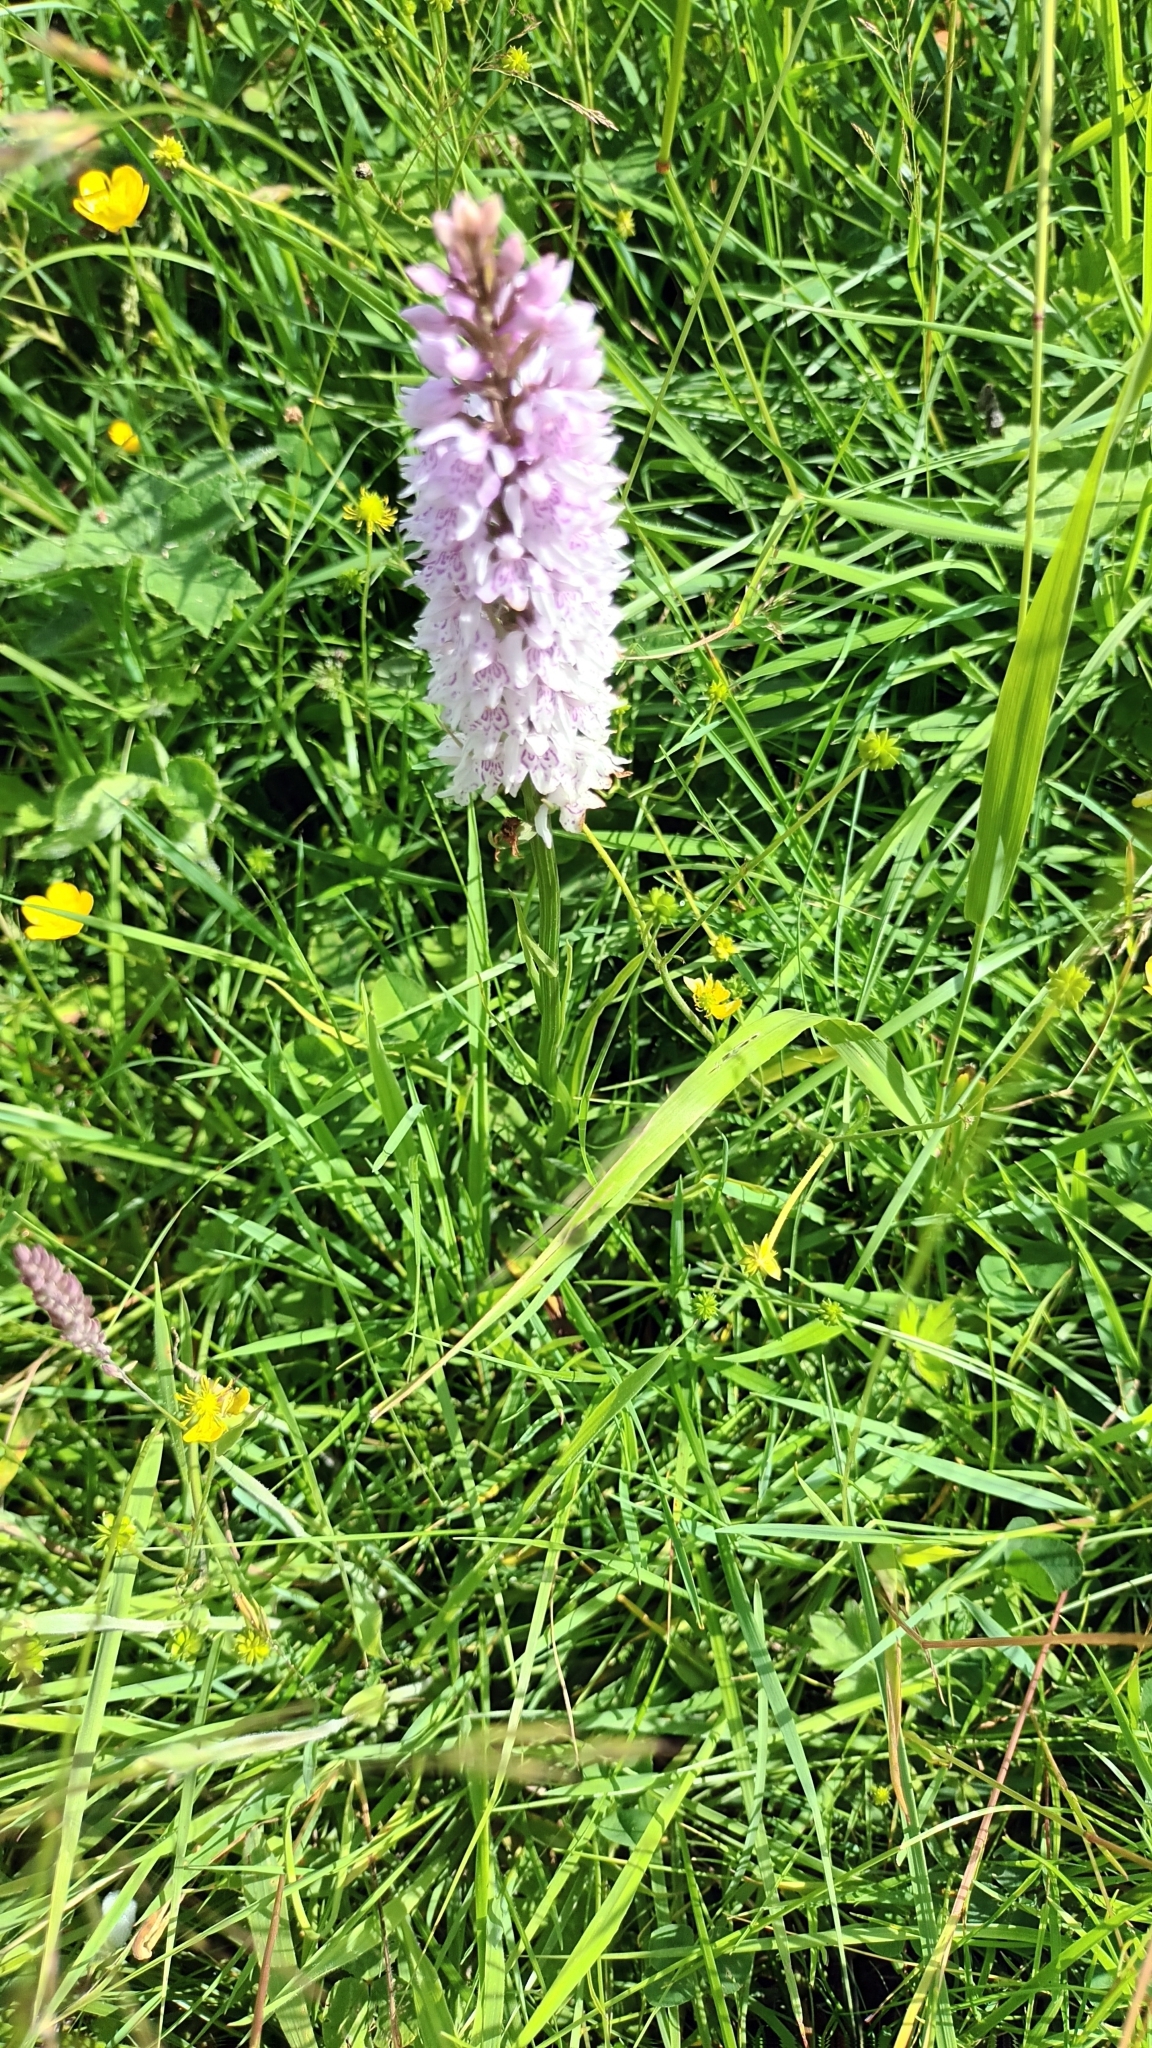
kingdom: Plantae
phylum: Tracheophyta
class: Liliopsida
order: Asparagales
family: Orchidaceae
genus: Dactylorhiza
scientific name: Dactylorhiza maculata
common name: Heath spotted-orchid
